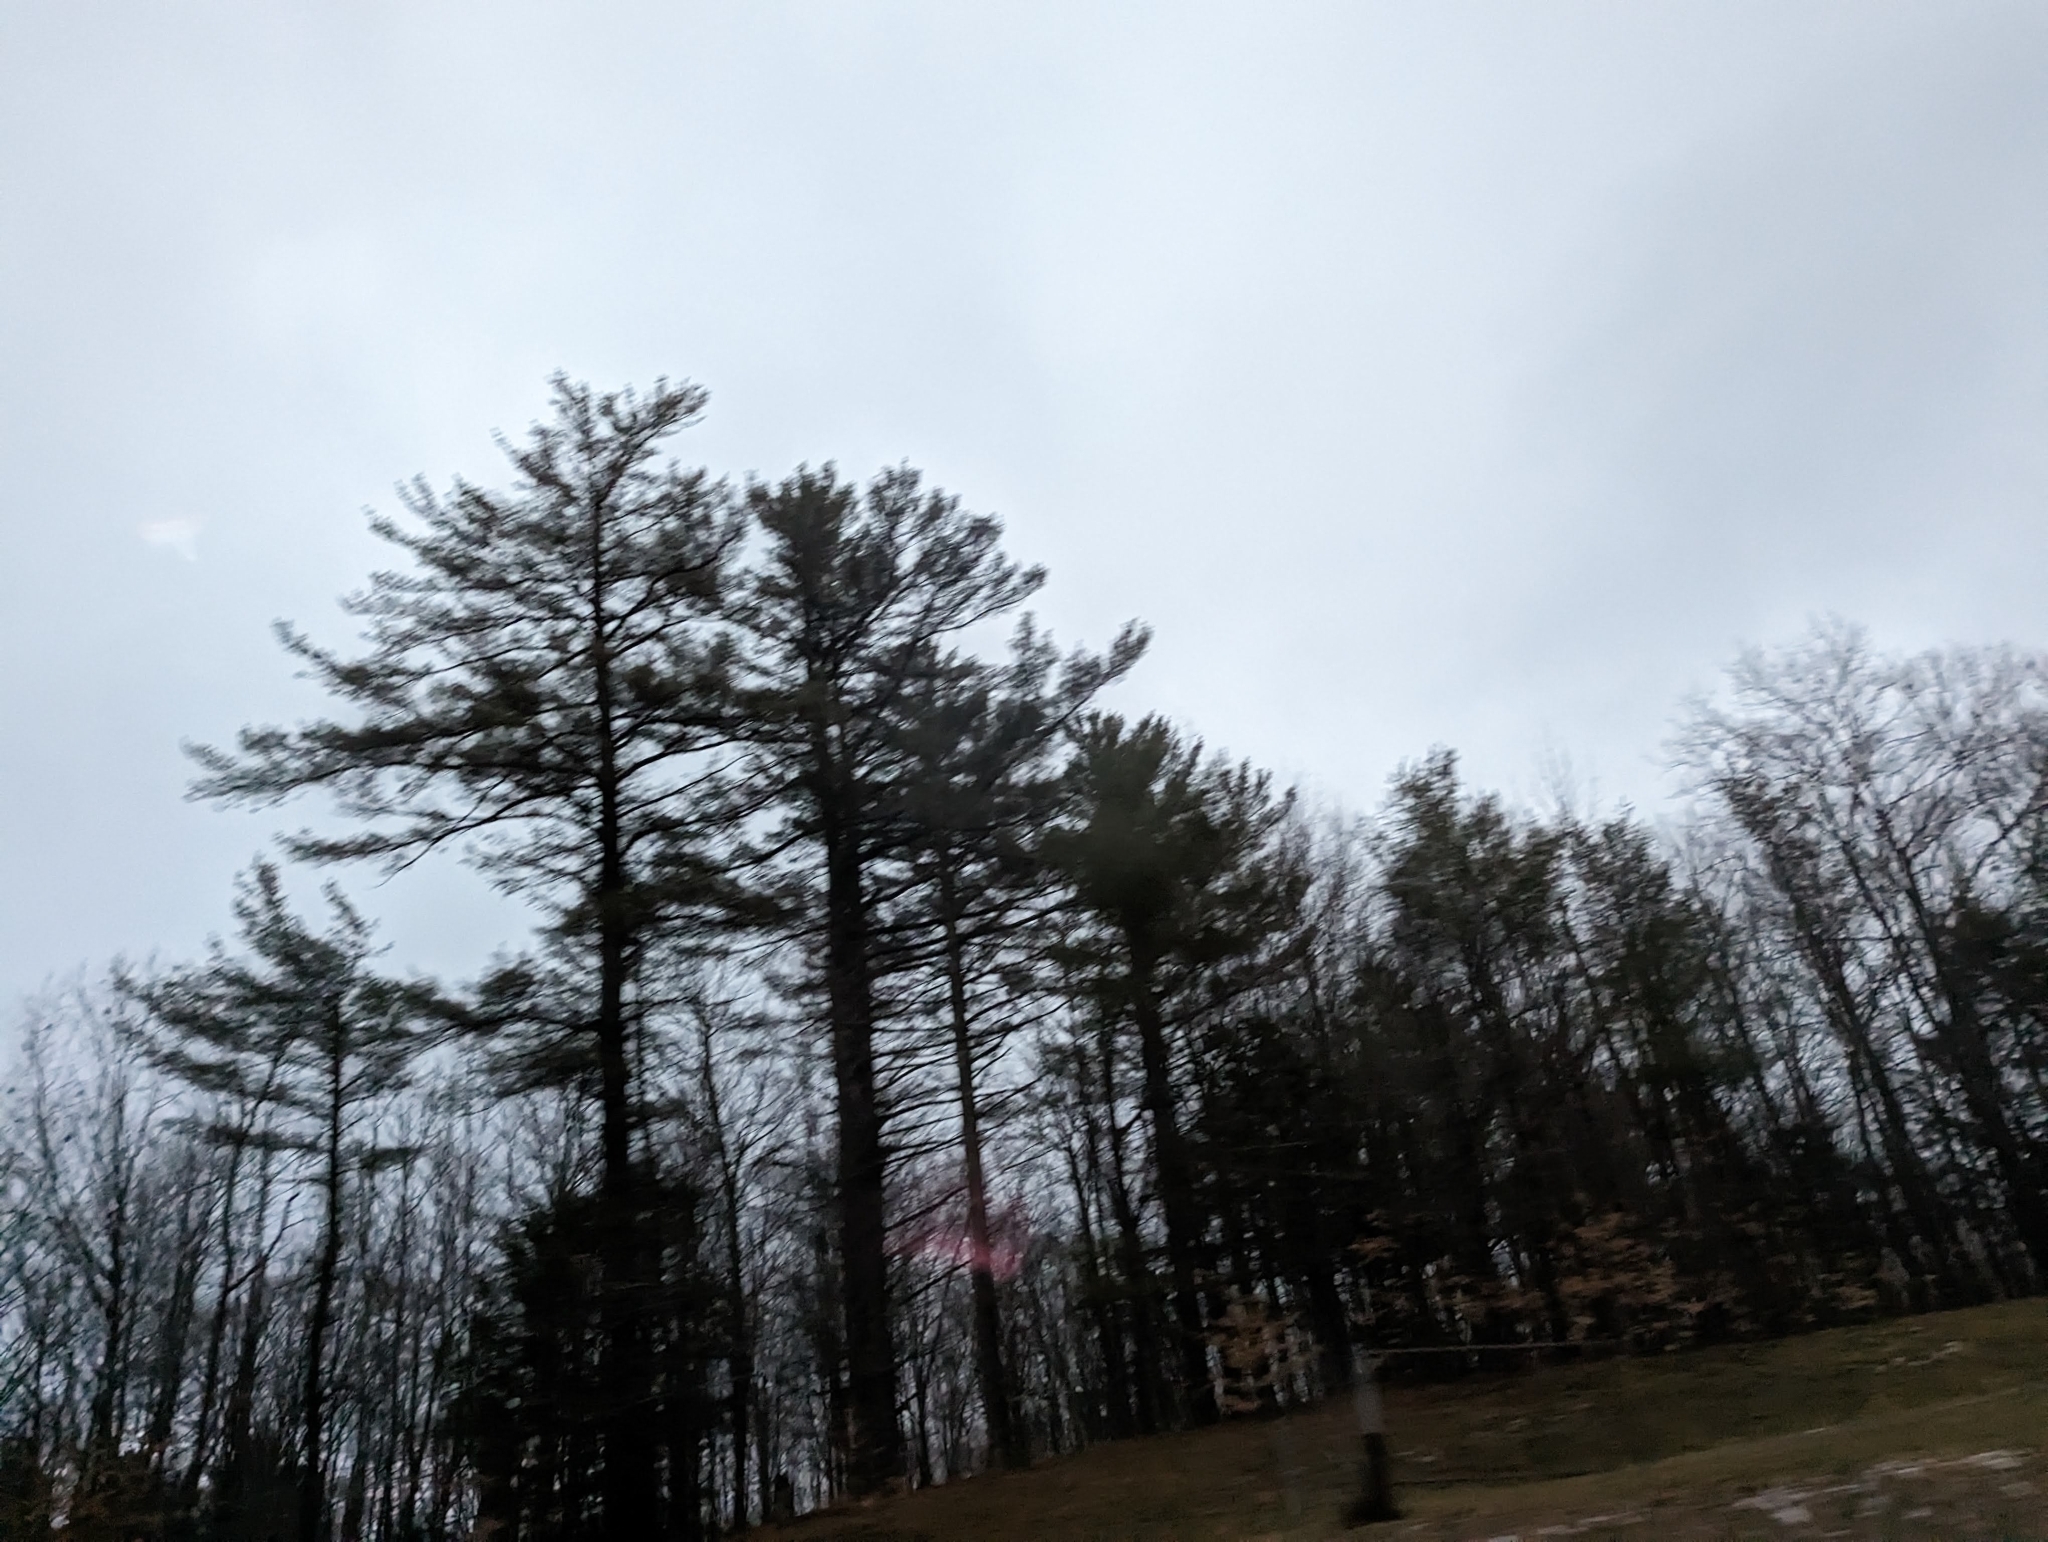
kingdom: Plantae
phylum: Tracheophyta
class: Pinopsida
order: Pinales
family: Pinaceae
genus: Pinus
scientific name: Pinus strobus
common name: Weymouth pine
